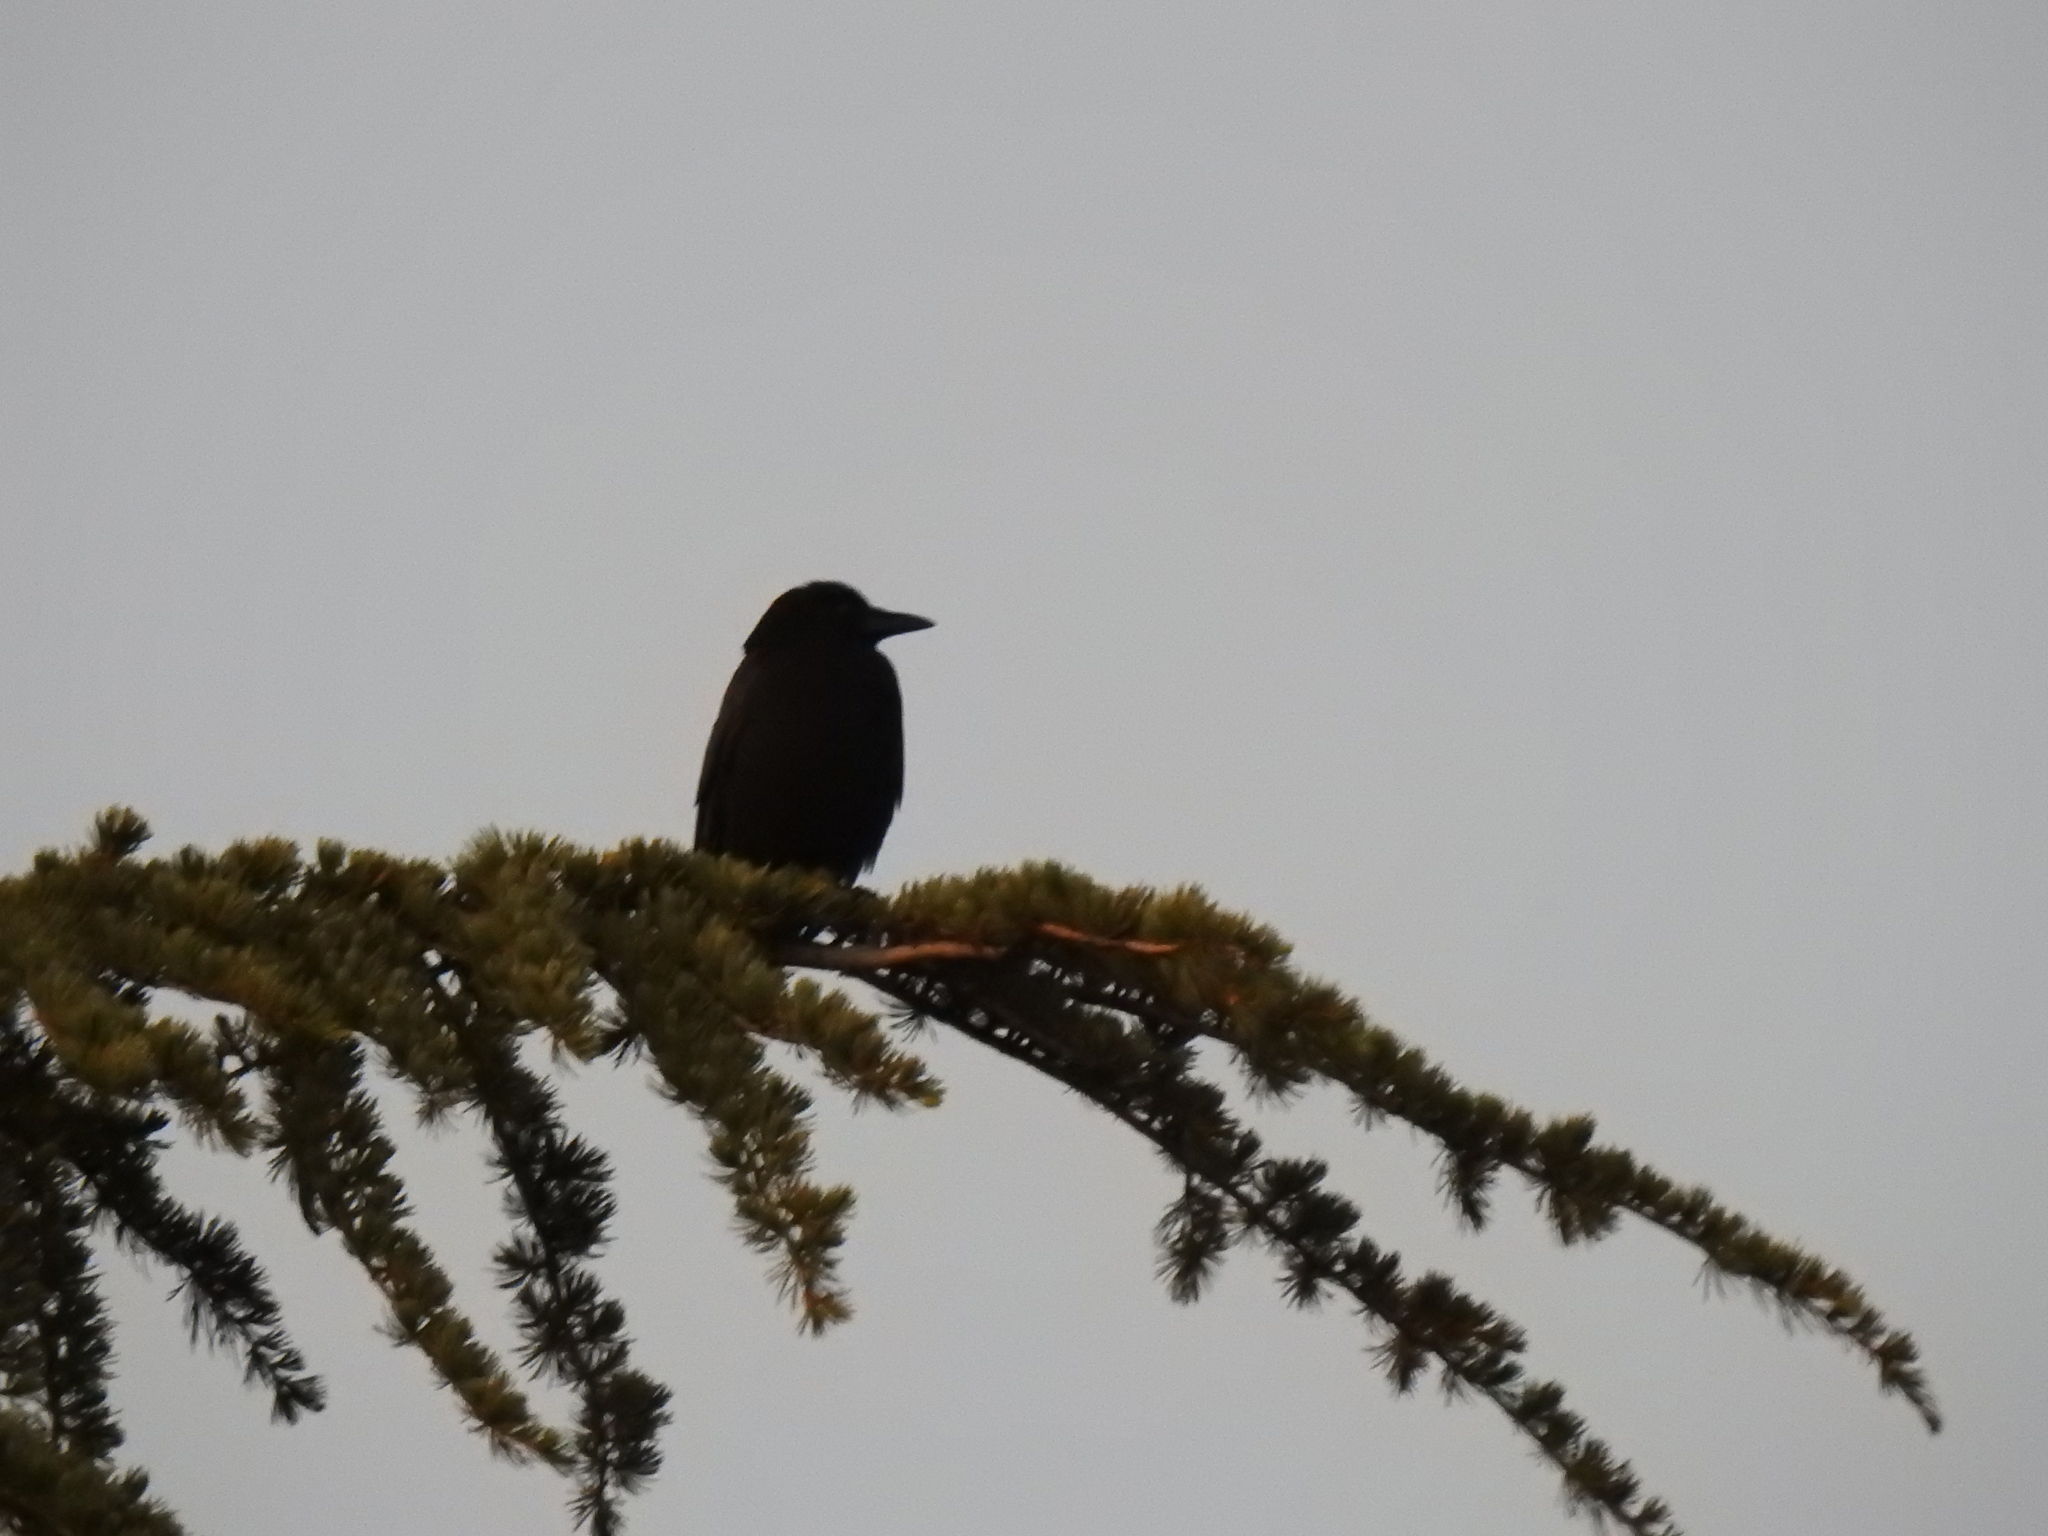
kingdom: Animalia
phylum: Chordata
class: Aves
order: Passeriformes
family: Corvidae
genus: Corvus
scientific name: Corvus brachyrhynchos
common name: American crow
